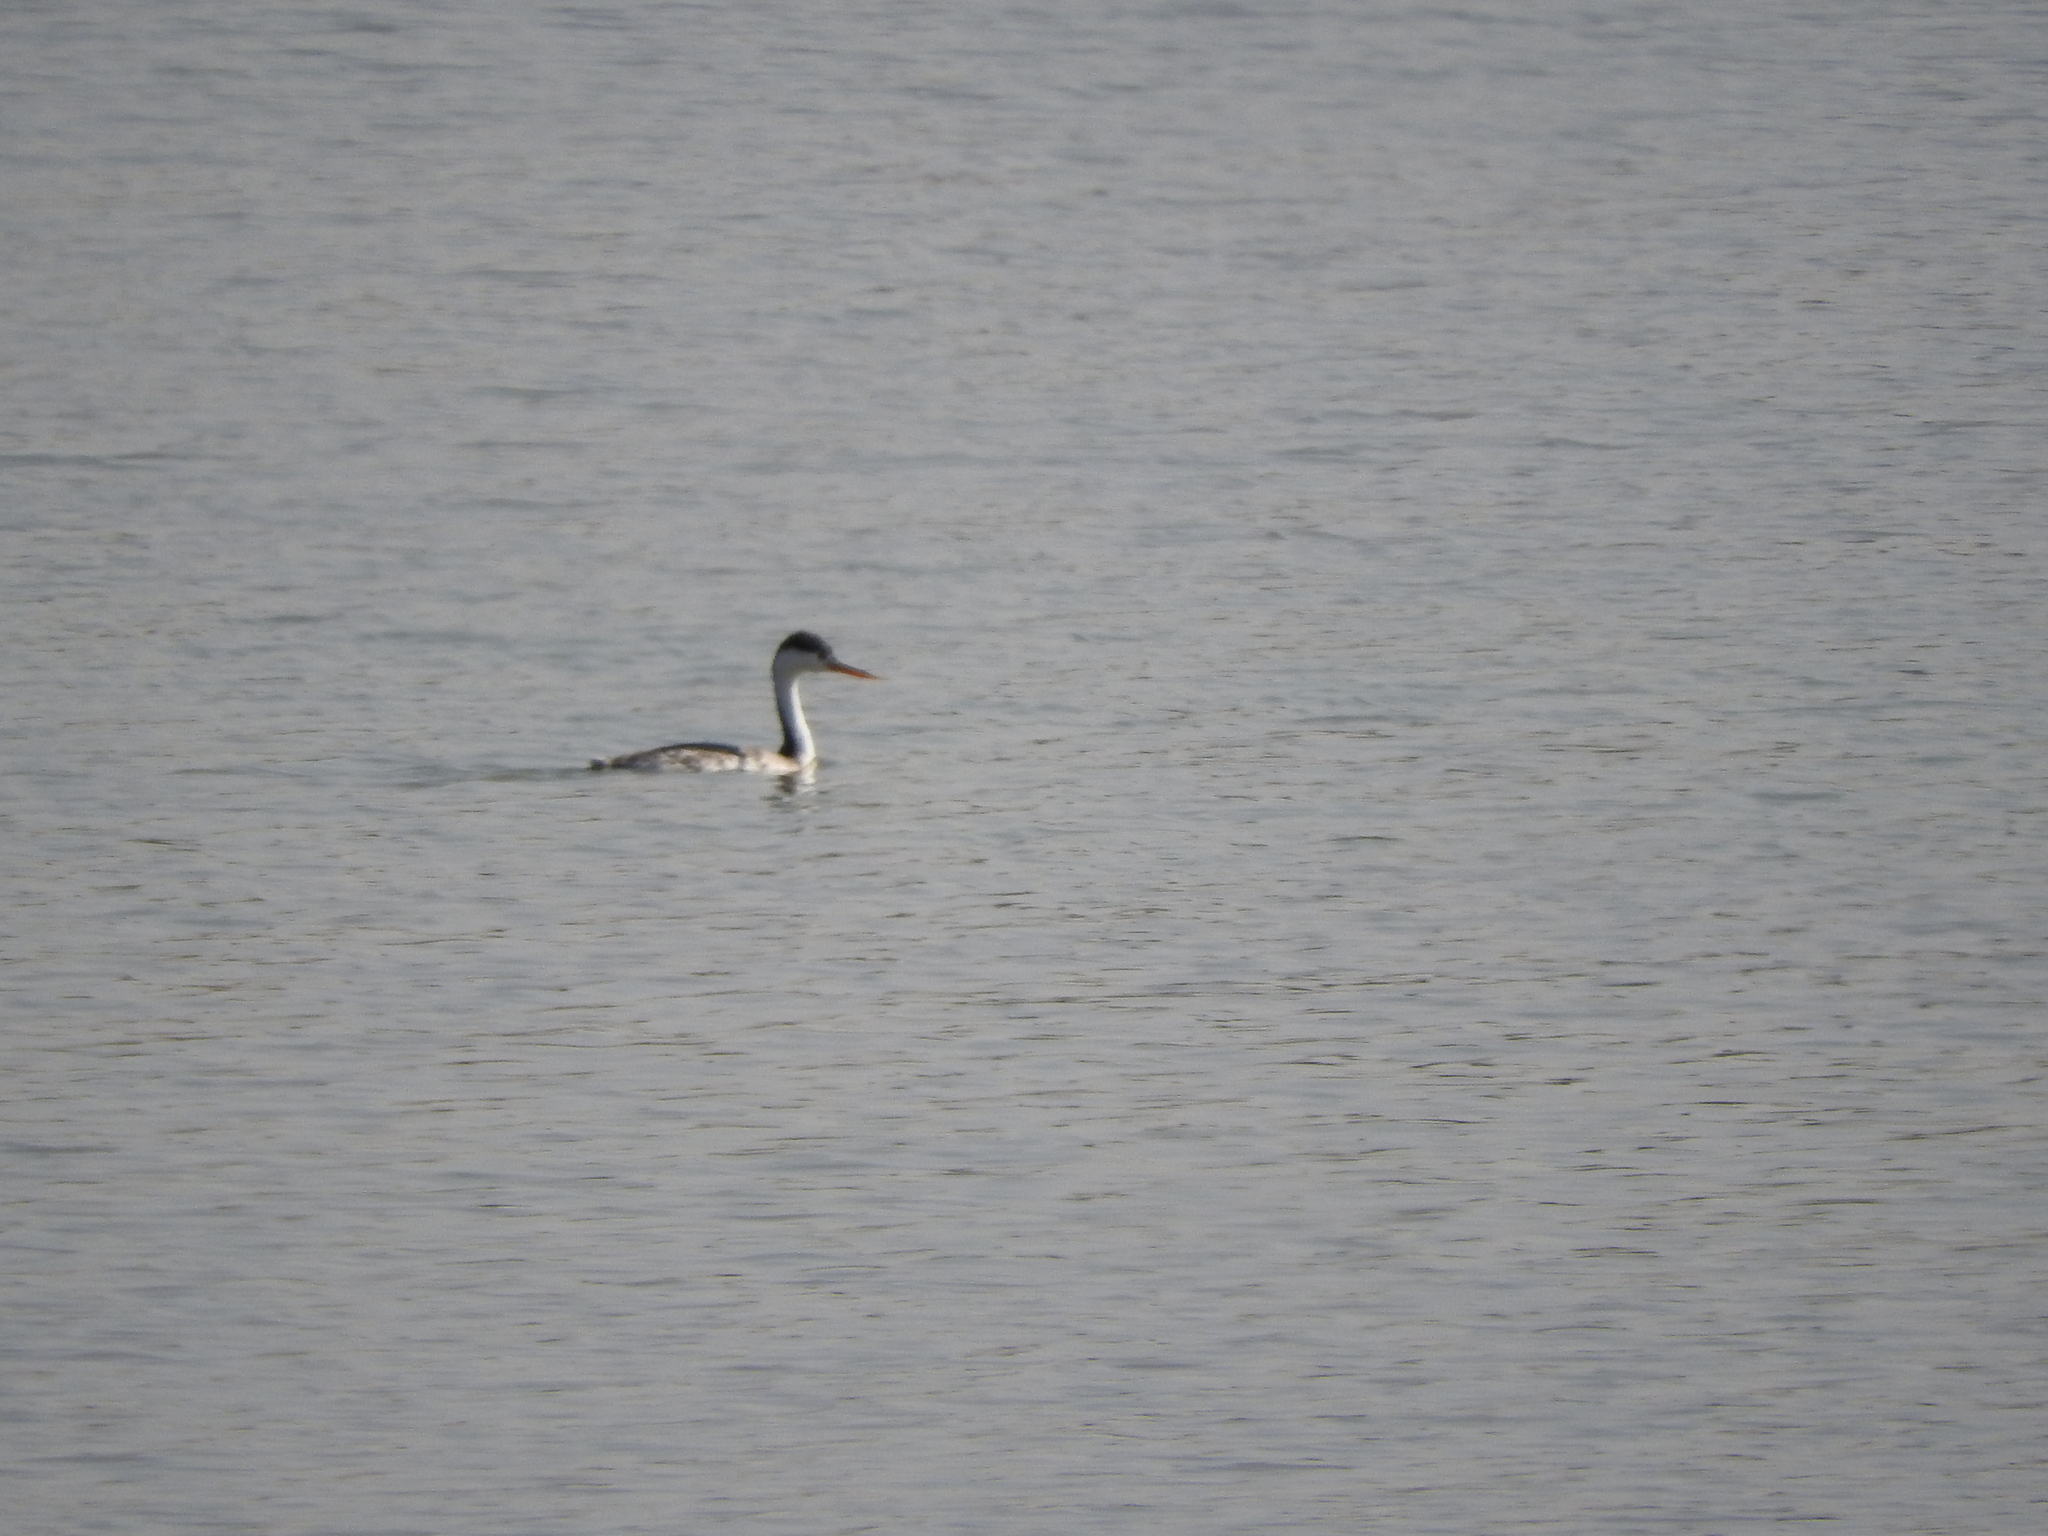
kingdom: Animalia
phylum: Chordata
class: Aves
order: Podicipediformes
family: Podicipedidae
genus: Aechmophorus
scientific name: Aechmophorus clarkii
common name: Clark's grebe
